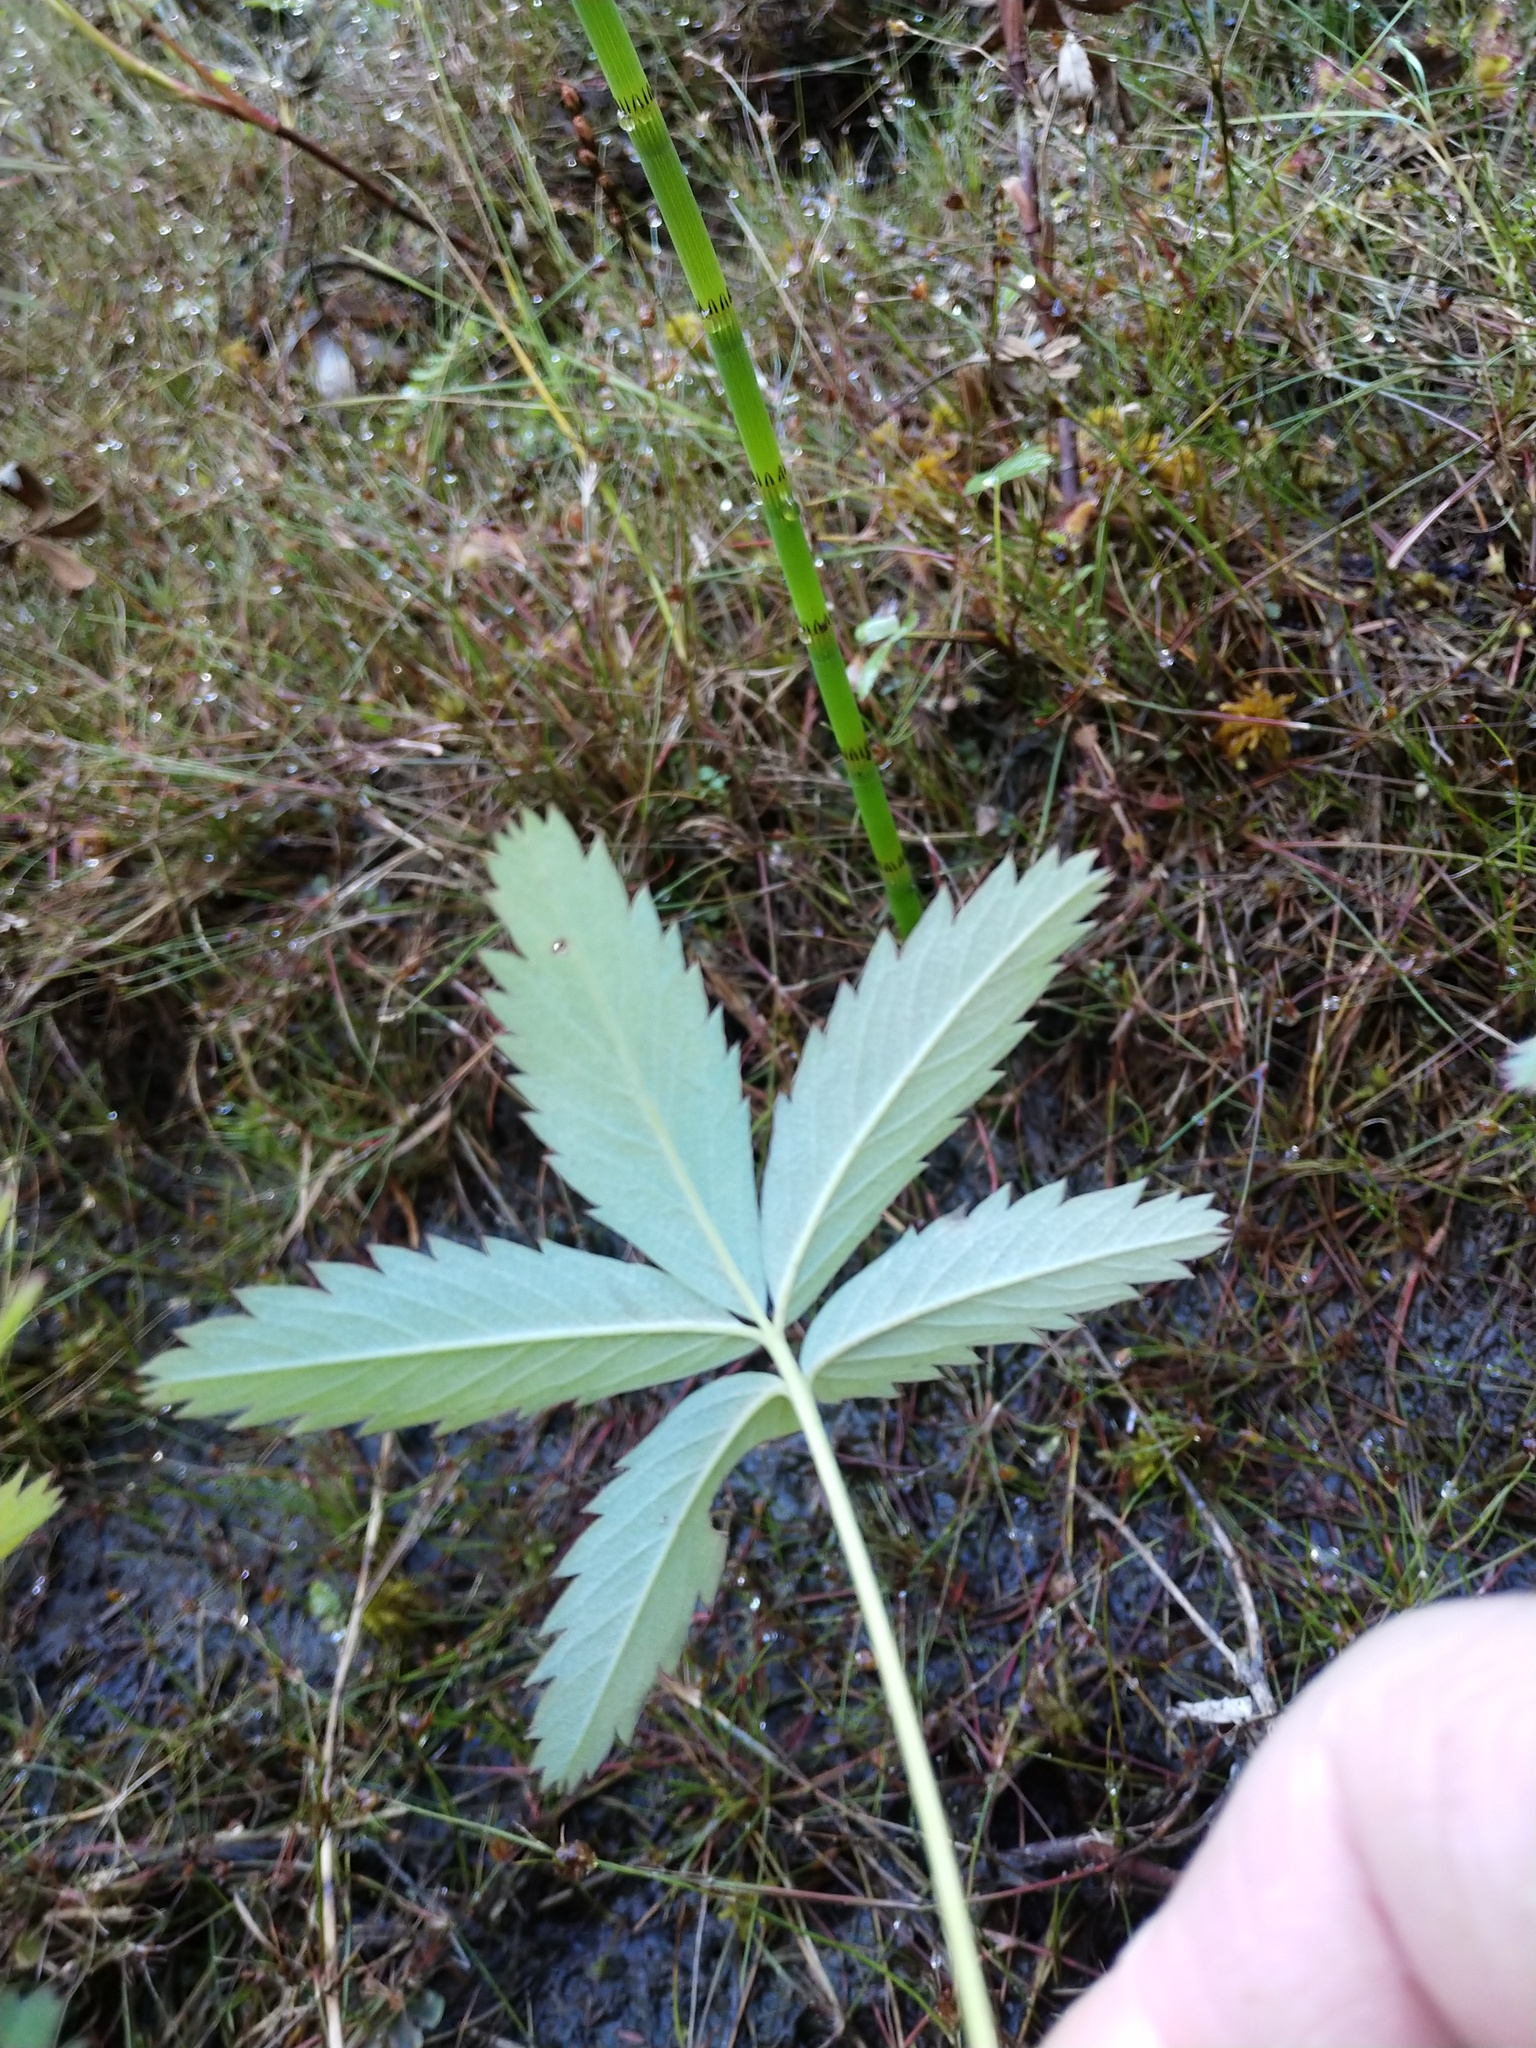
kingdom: Plantae
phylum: Tracheophyta
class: Magnoliopsida
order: Rosales
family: Rosaceae
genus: Comarum
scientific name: Comarum palustre
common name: Marsh cinquefoil
